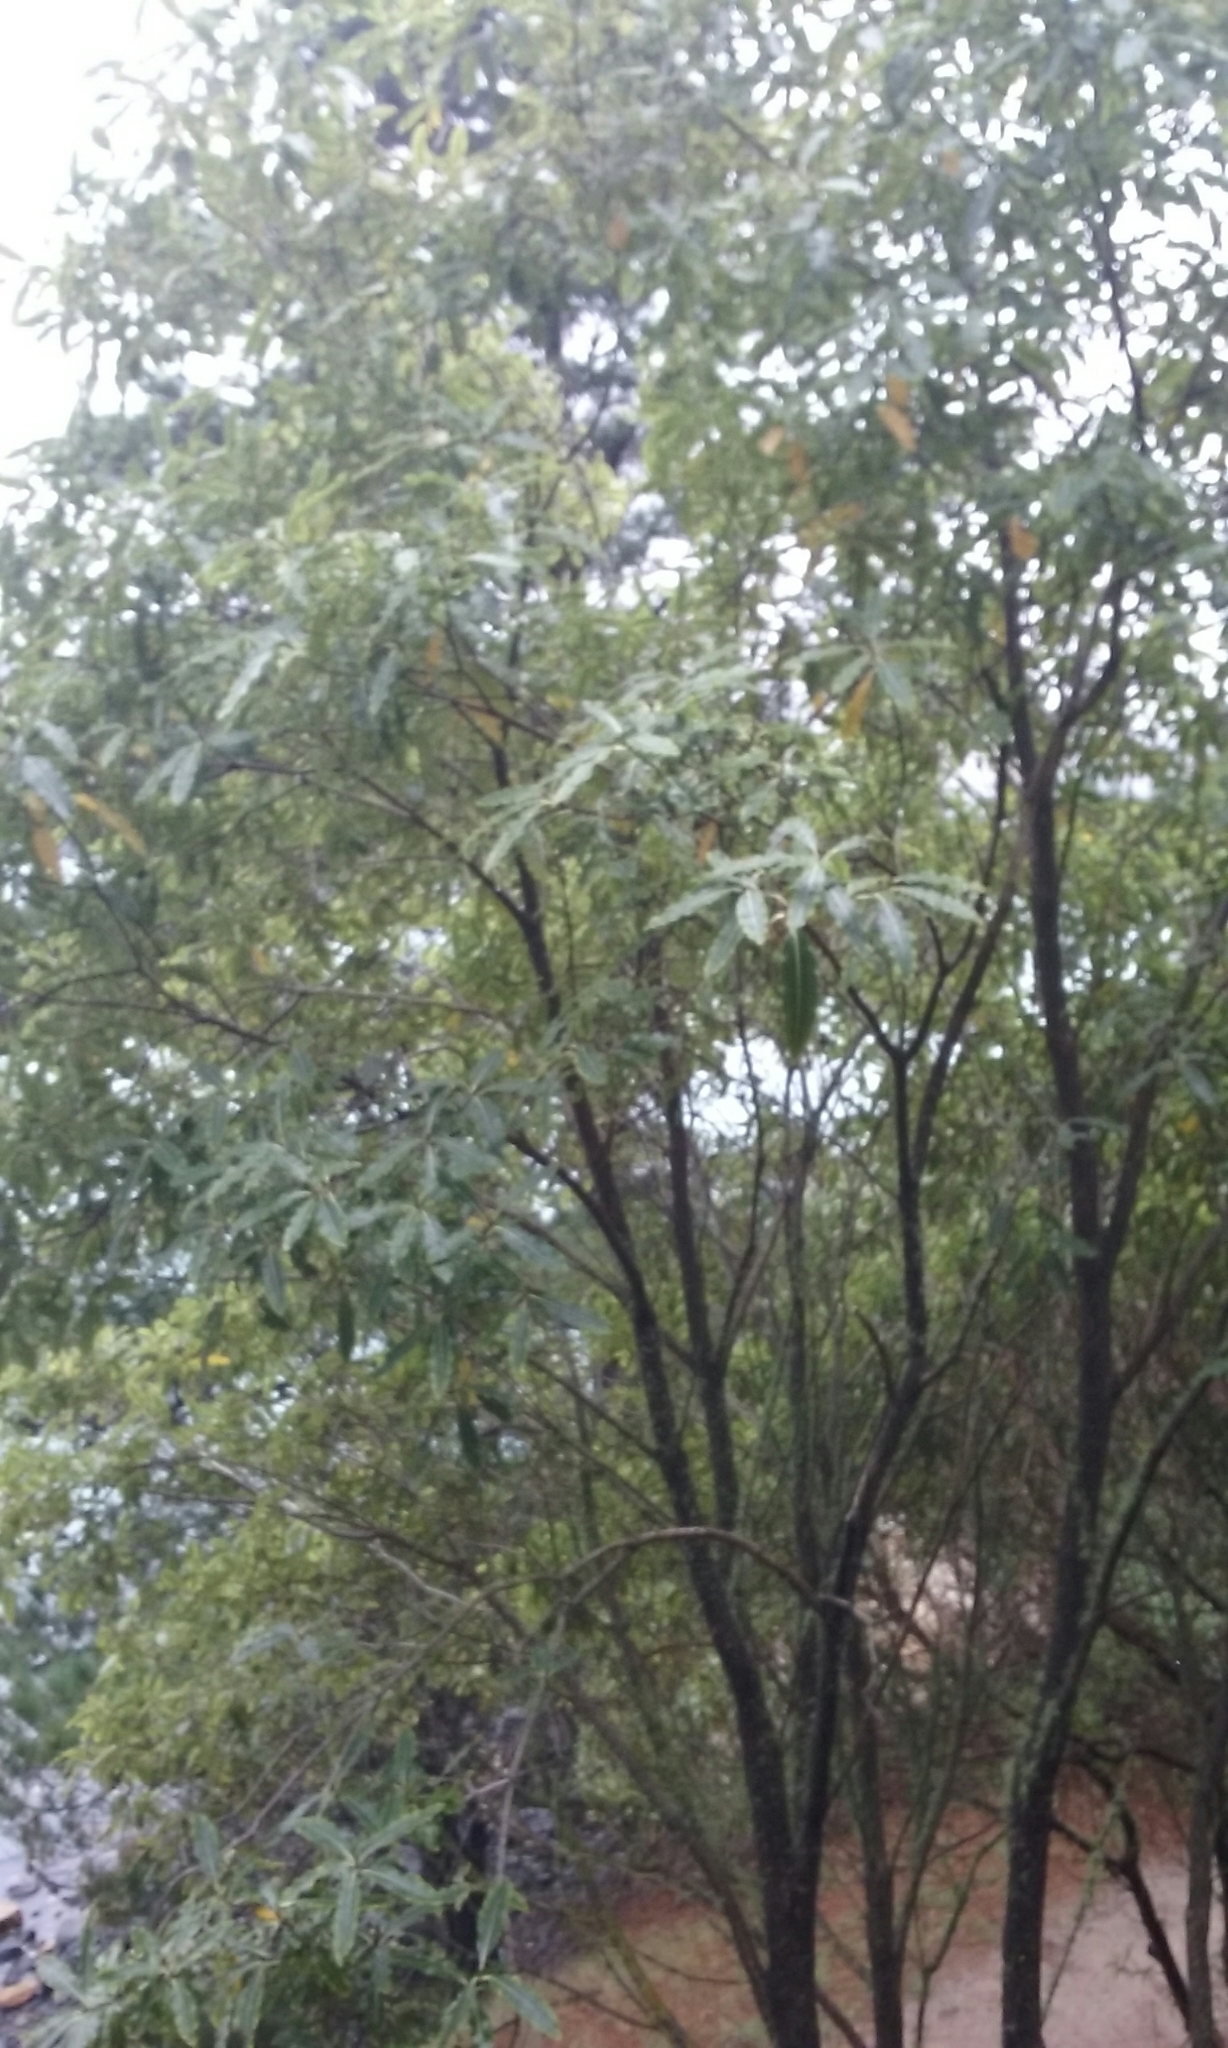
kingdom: Plantae
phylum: Tracheophyta
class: Magnoliopsida
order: Apiales
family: Pittosporaceae
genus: Pittosporum
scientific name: Pittosporum eugenioides
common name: Lemonwood
